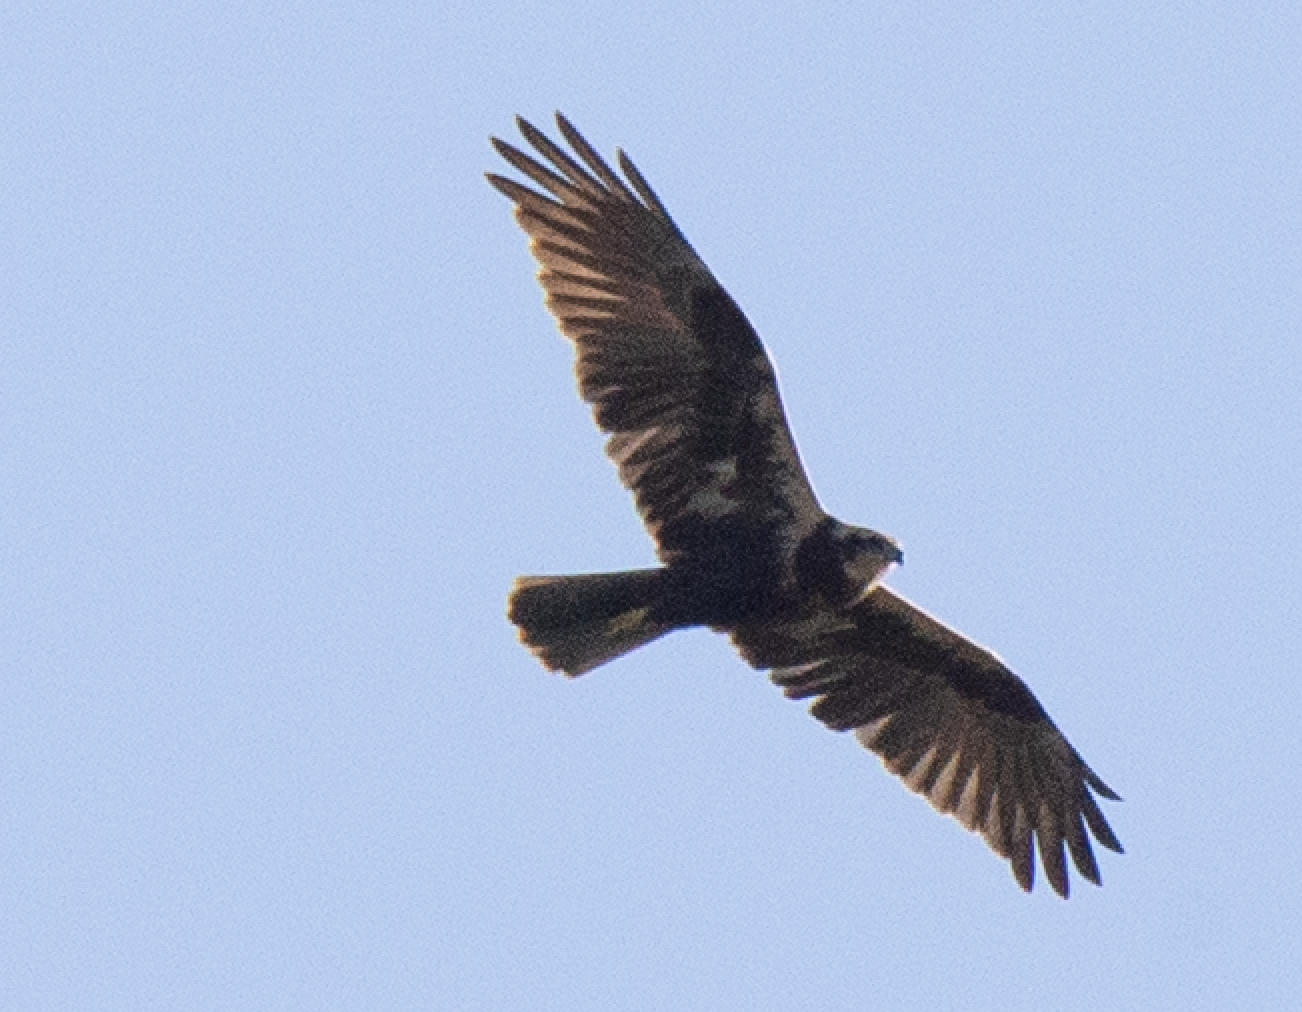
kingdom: Animalia
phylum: Chordata
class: Aves
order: Accipitriformes
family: Accipitridae
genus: Circus
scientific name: Circus aeruginosus
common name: Western marsh harrier
